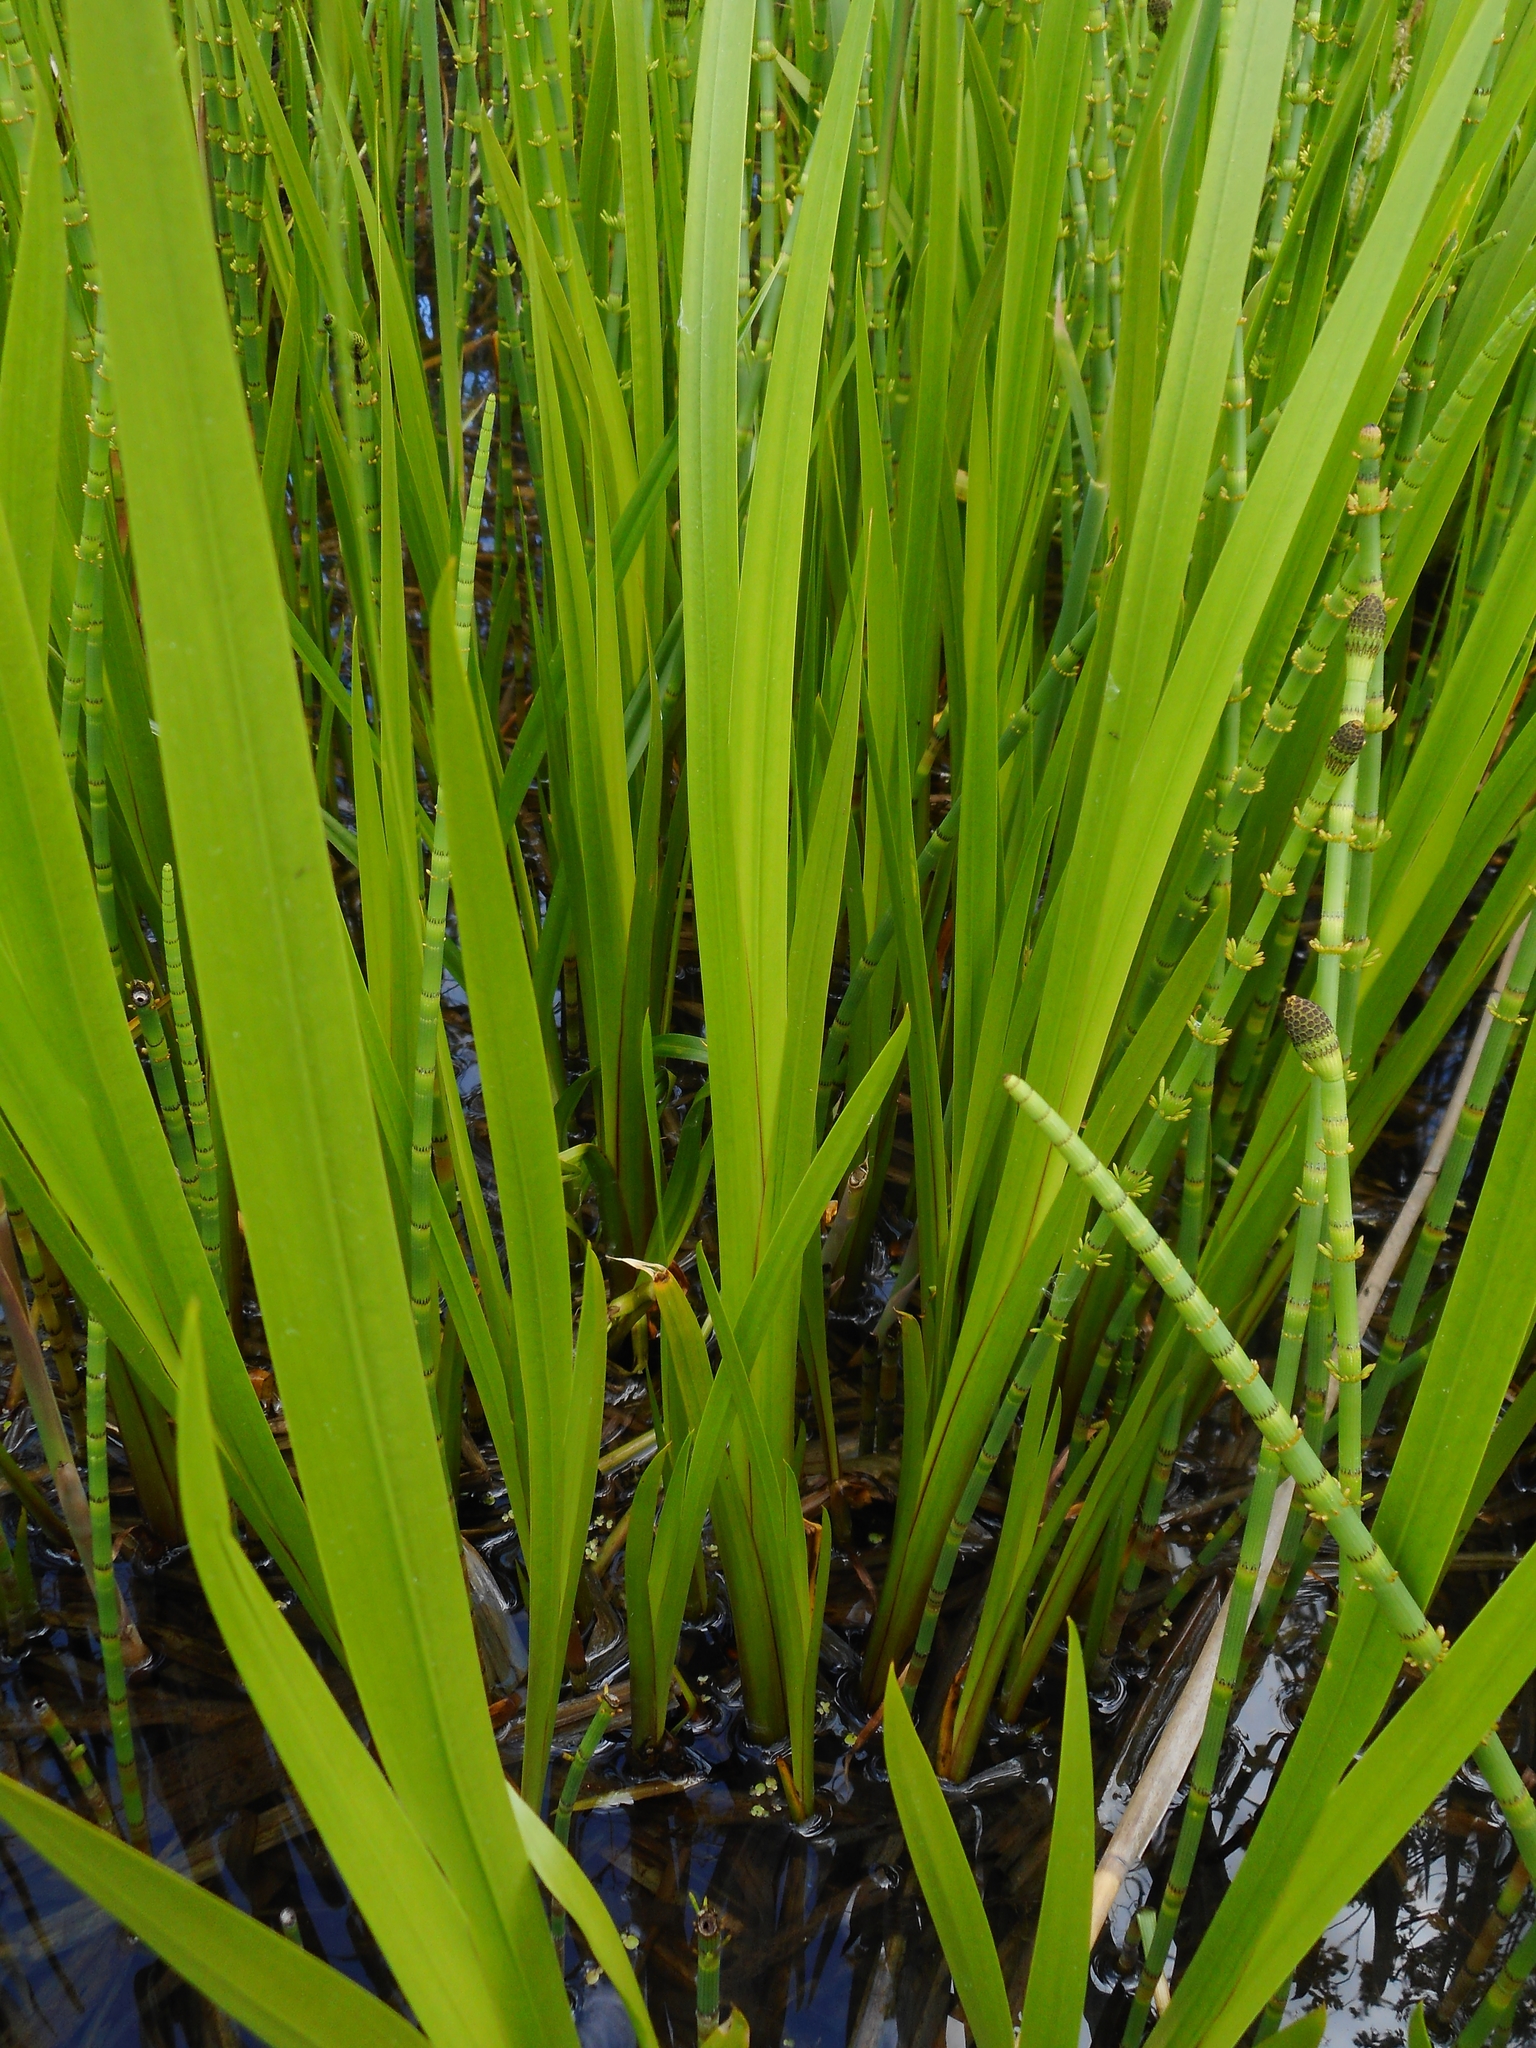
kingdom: Plantae
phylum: Tracheophyta
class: Liliopsida
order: Acorales
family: Acoraceae
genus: Acorus
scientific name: Acorus calamus
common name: Sweet-flag
